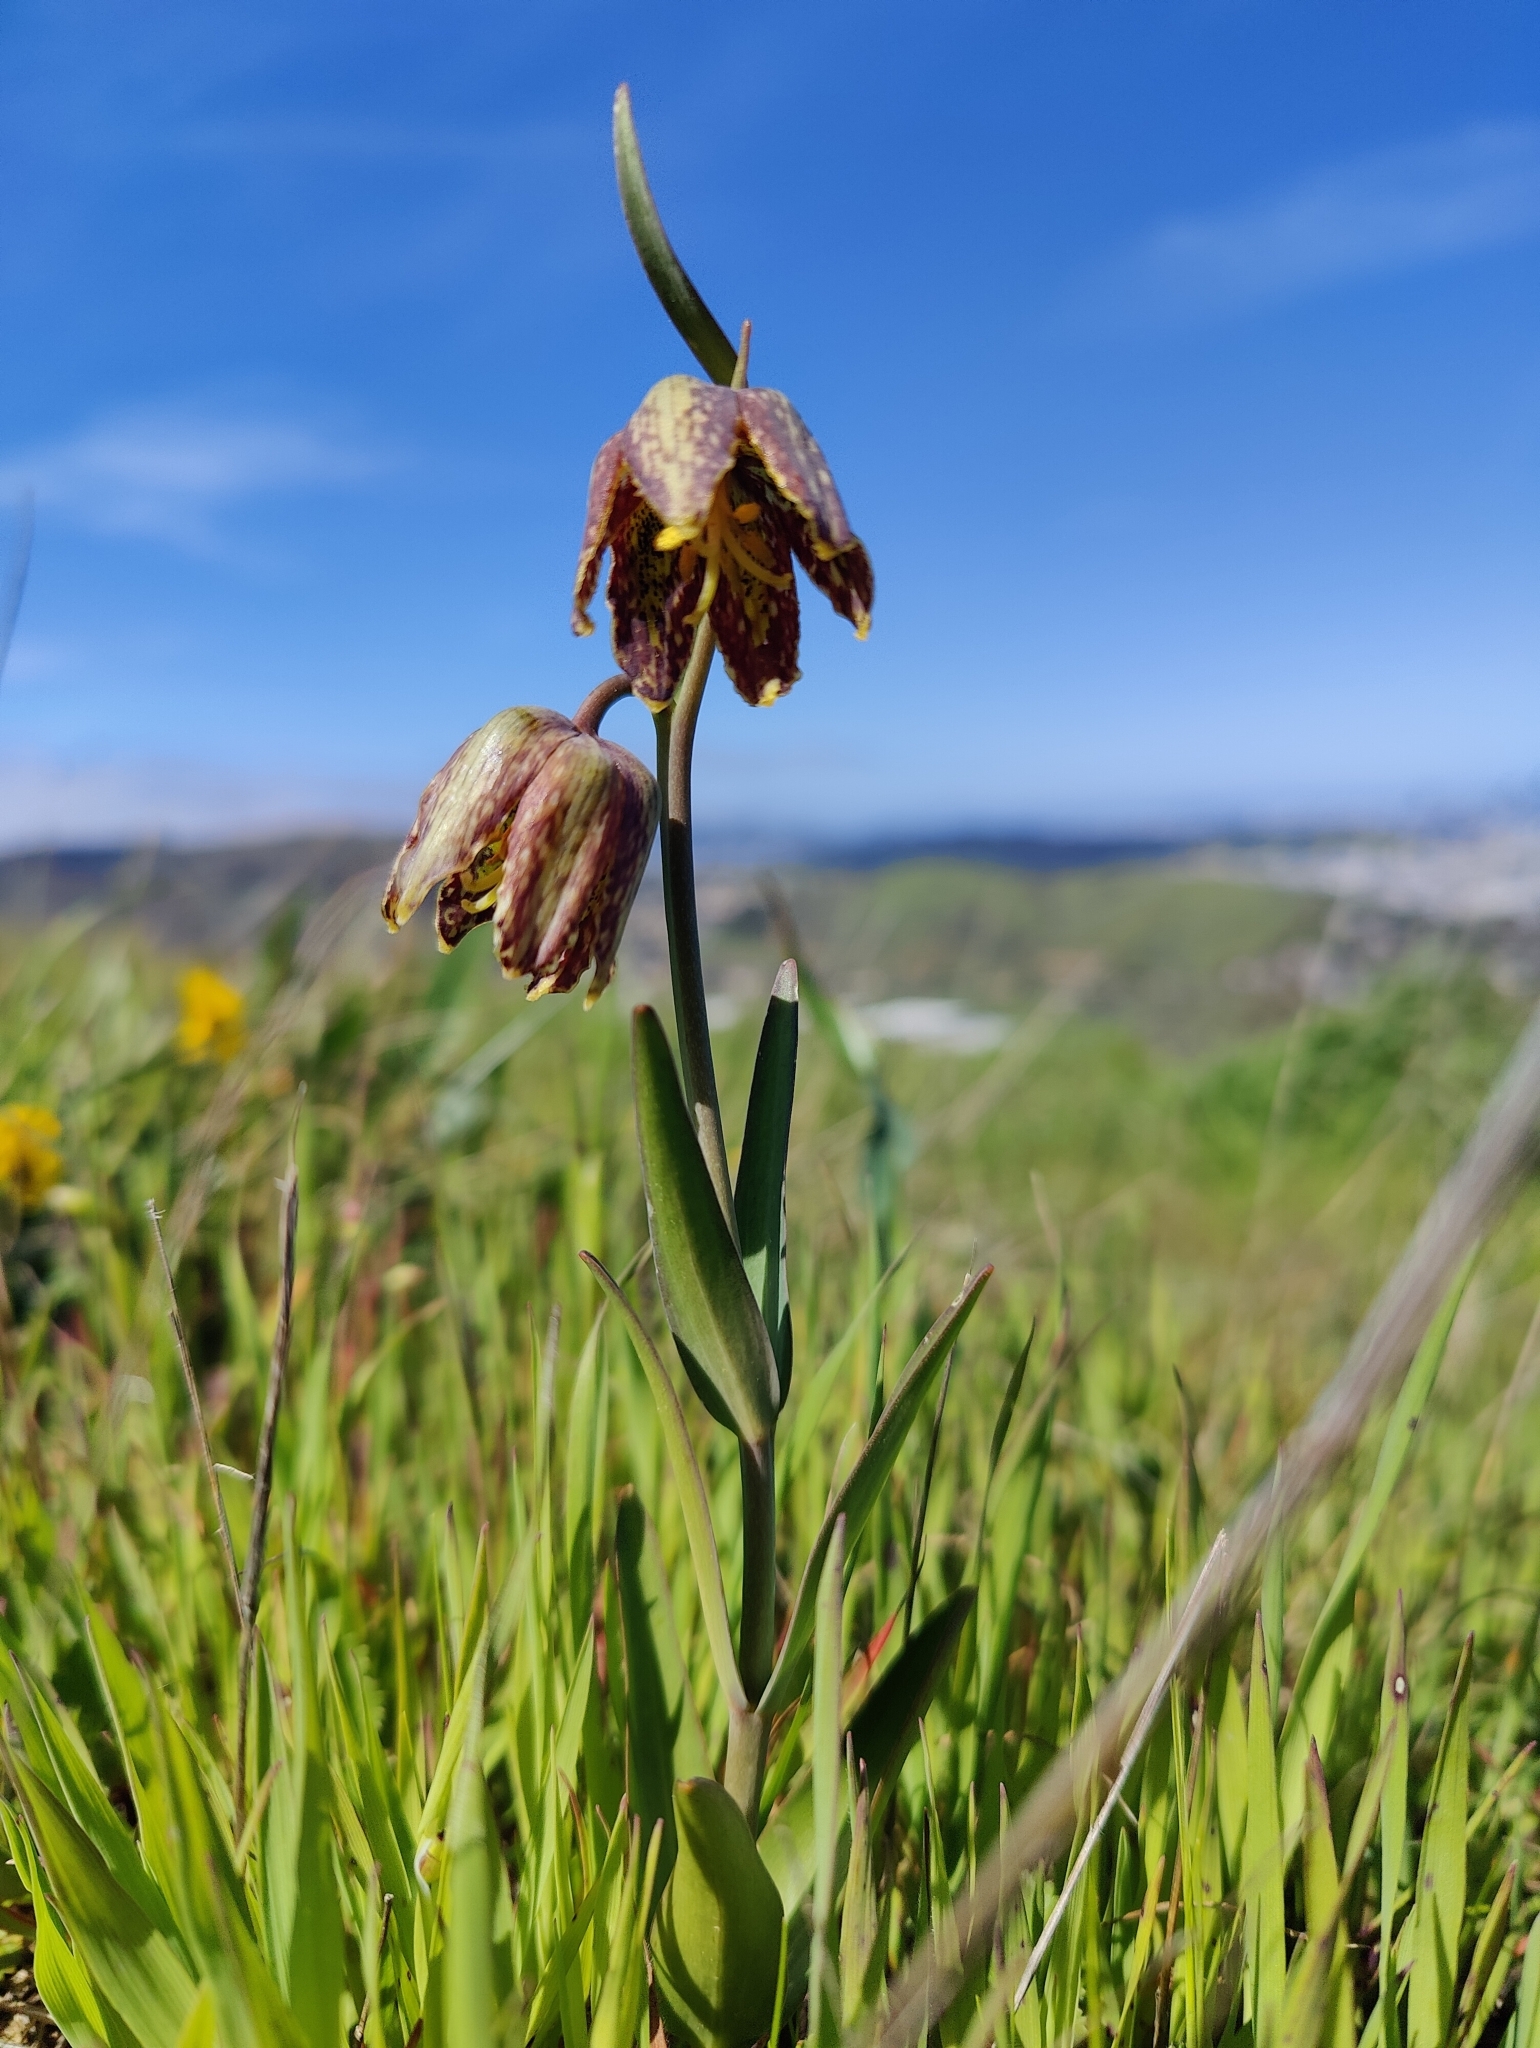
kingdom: Plantae
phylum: Tracheophyta
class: Liliopsida
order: Liliales
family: Liliaceae
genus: Fritillaria
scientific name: Fritillaria affinis
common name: Ojai fritillary
